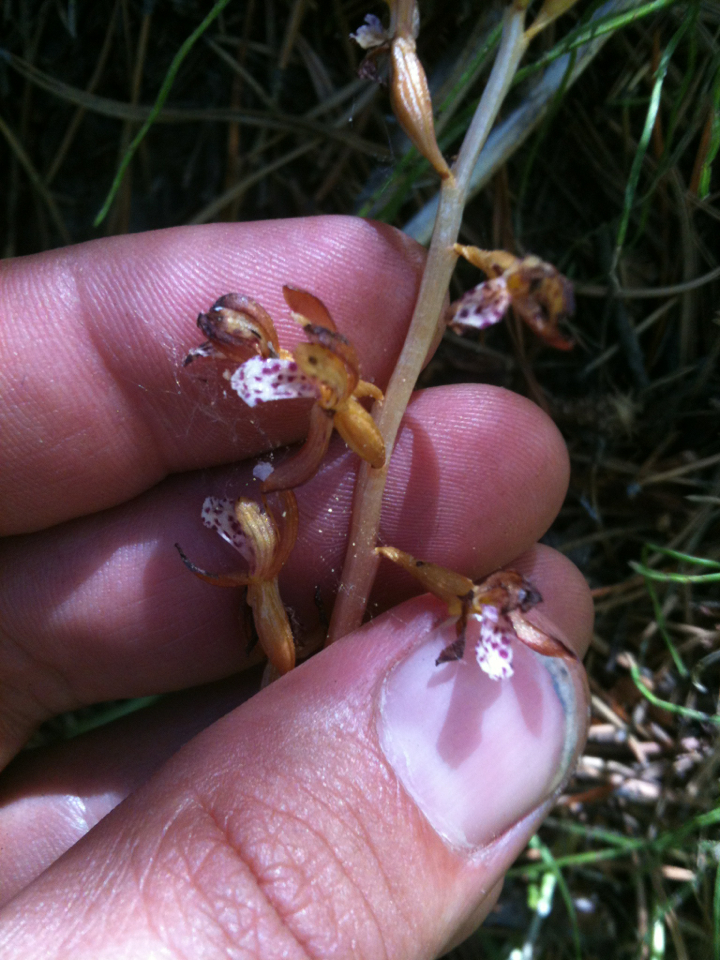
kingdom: Plantae
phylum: Tracheophyta
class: Liliopsida
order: Asparagales
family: Orchidaceae
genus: Corallorhiza
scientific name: Corallorhiza maculata
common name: Spotted coralroot
